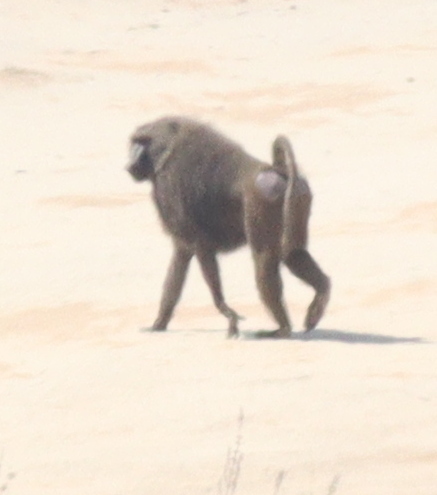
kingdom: Animalia
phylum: Chordata
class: Mammalia
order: Primates
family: Cercopithecidae
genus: Papio
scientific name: Papio anubis
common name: Olive baboon
